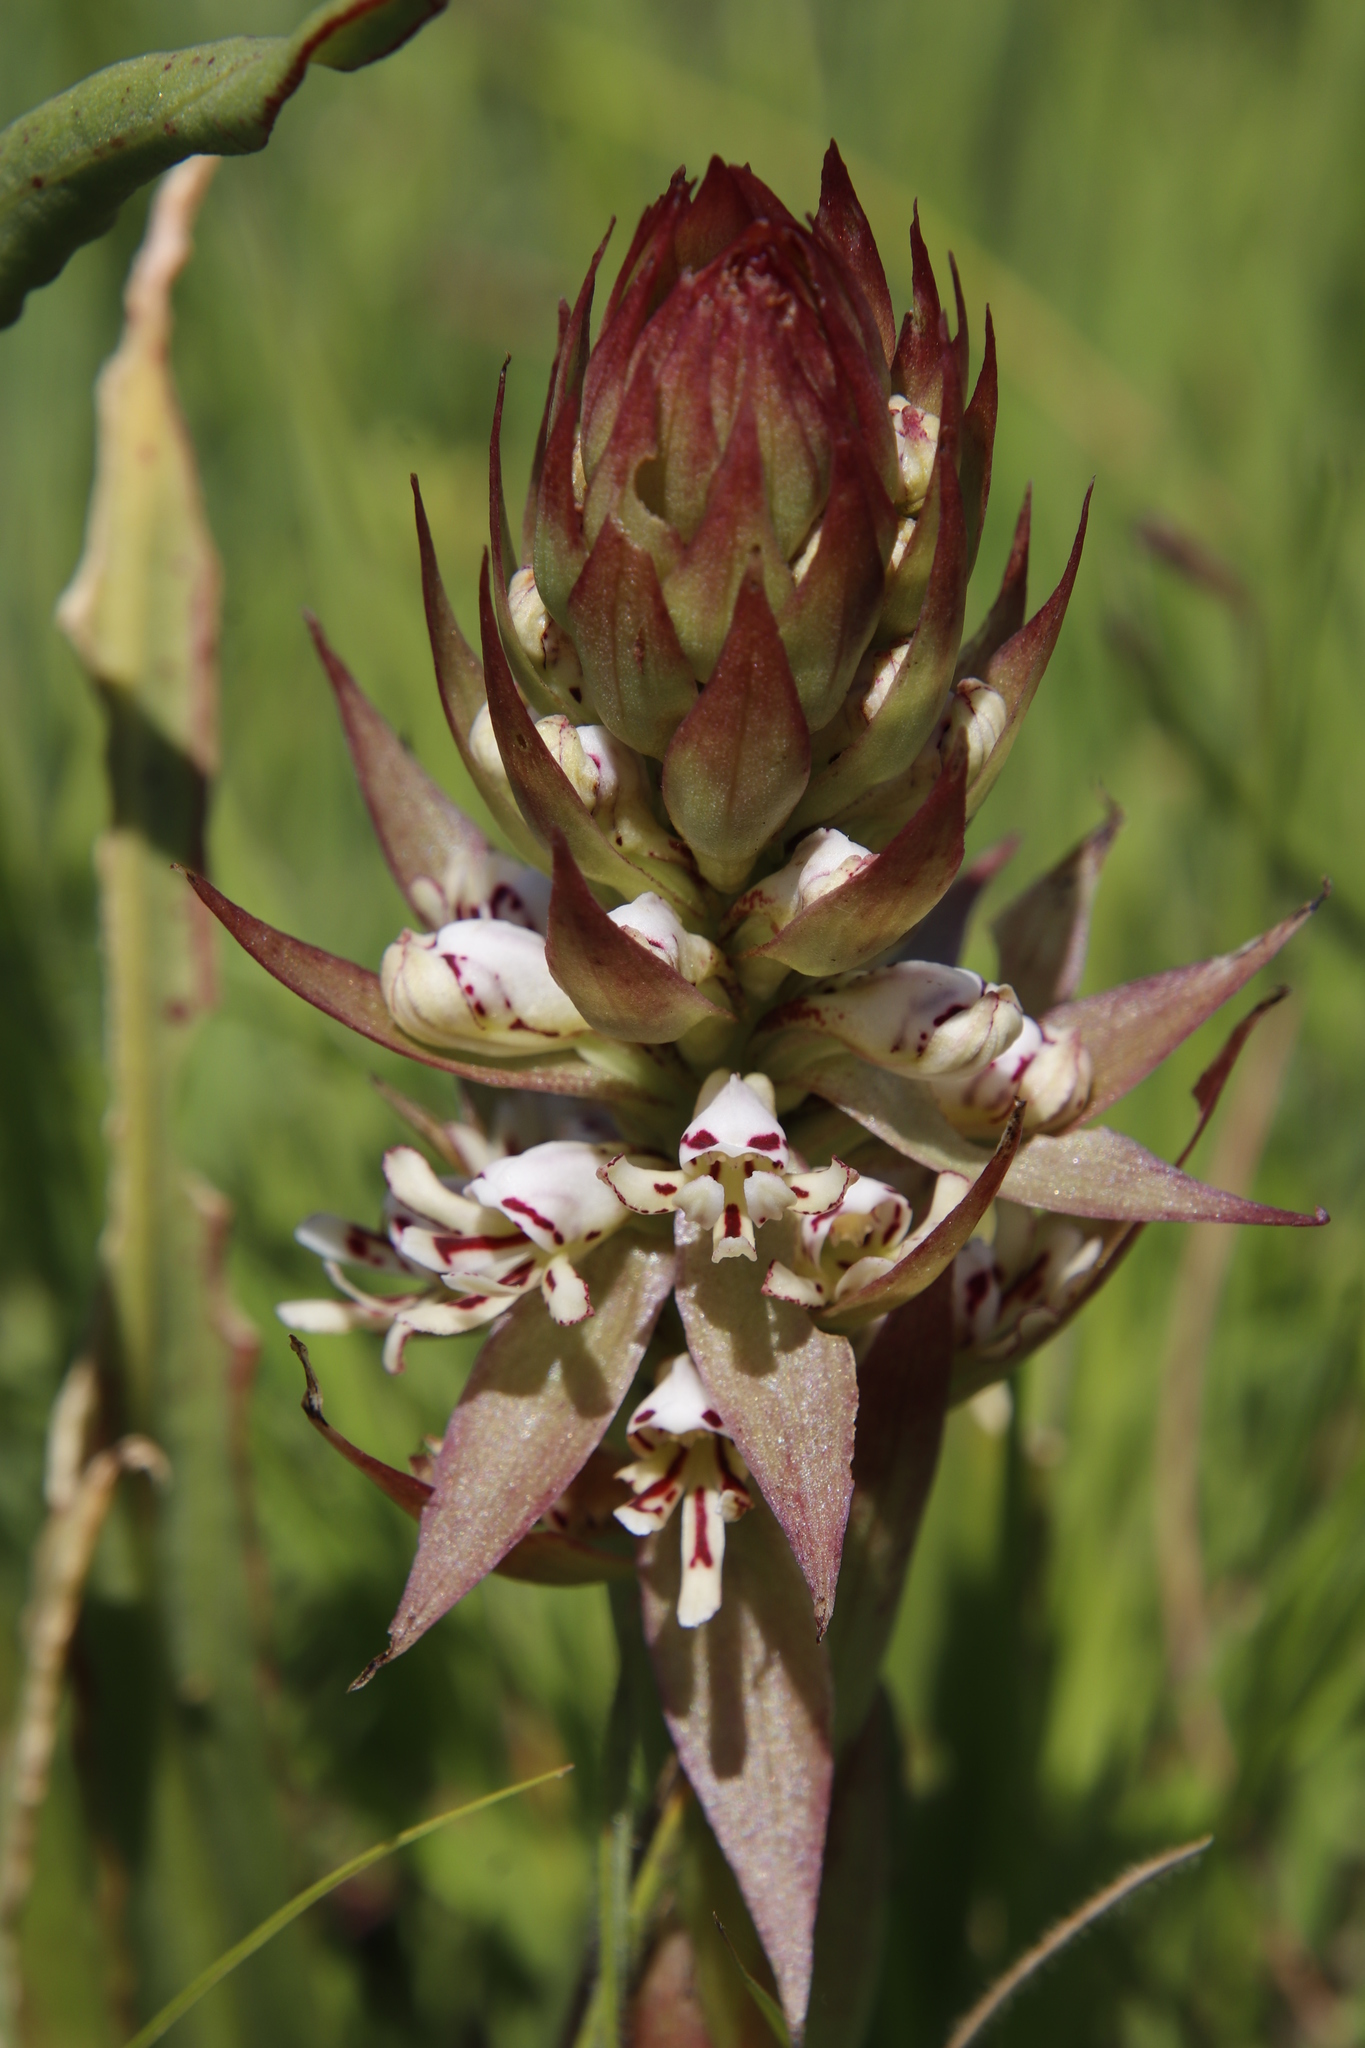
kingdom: Plantae
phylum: Tracheophyta
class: Liliopsida
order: Asparagales
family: Orchidaceae
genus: Satyrium
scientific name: Satyrium cristatum
